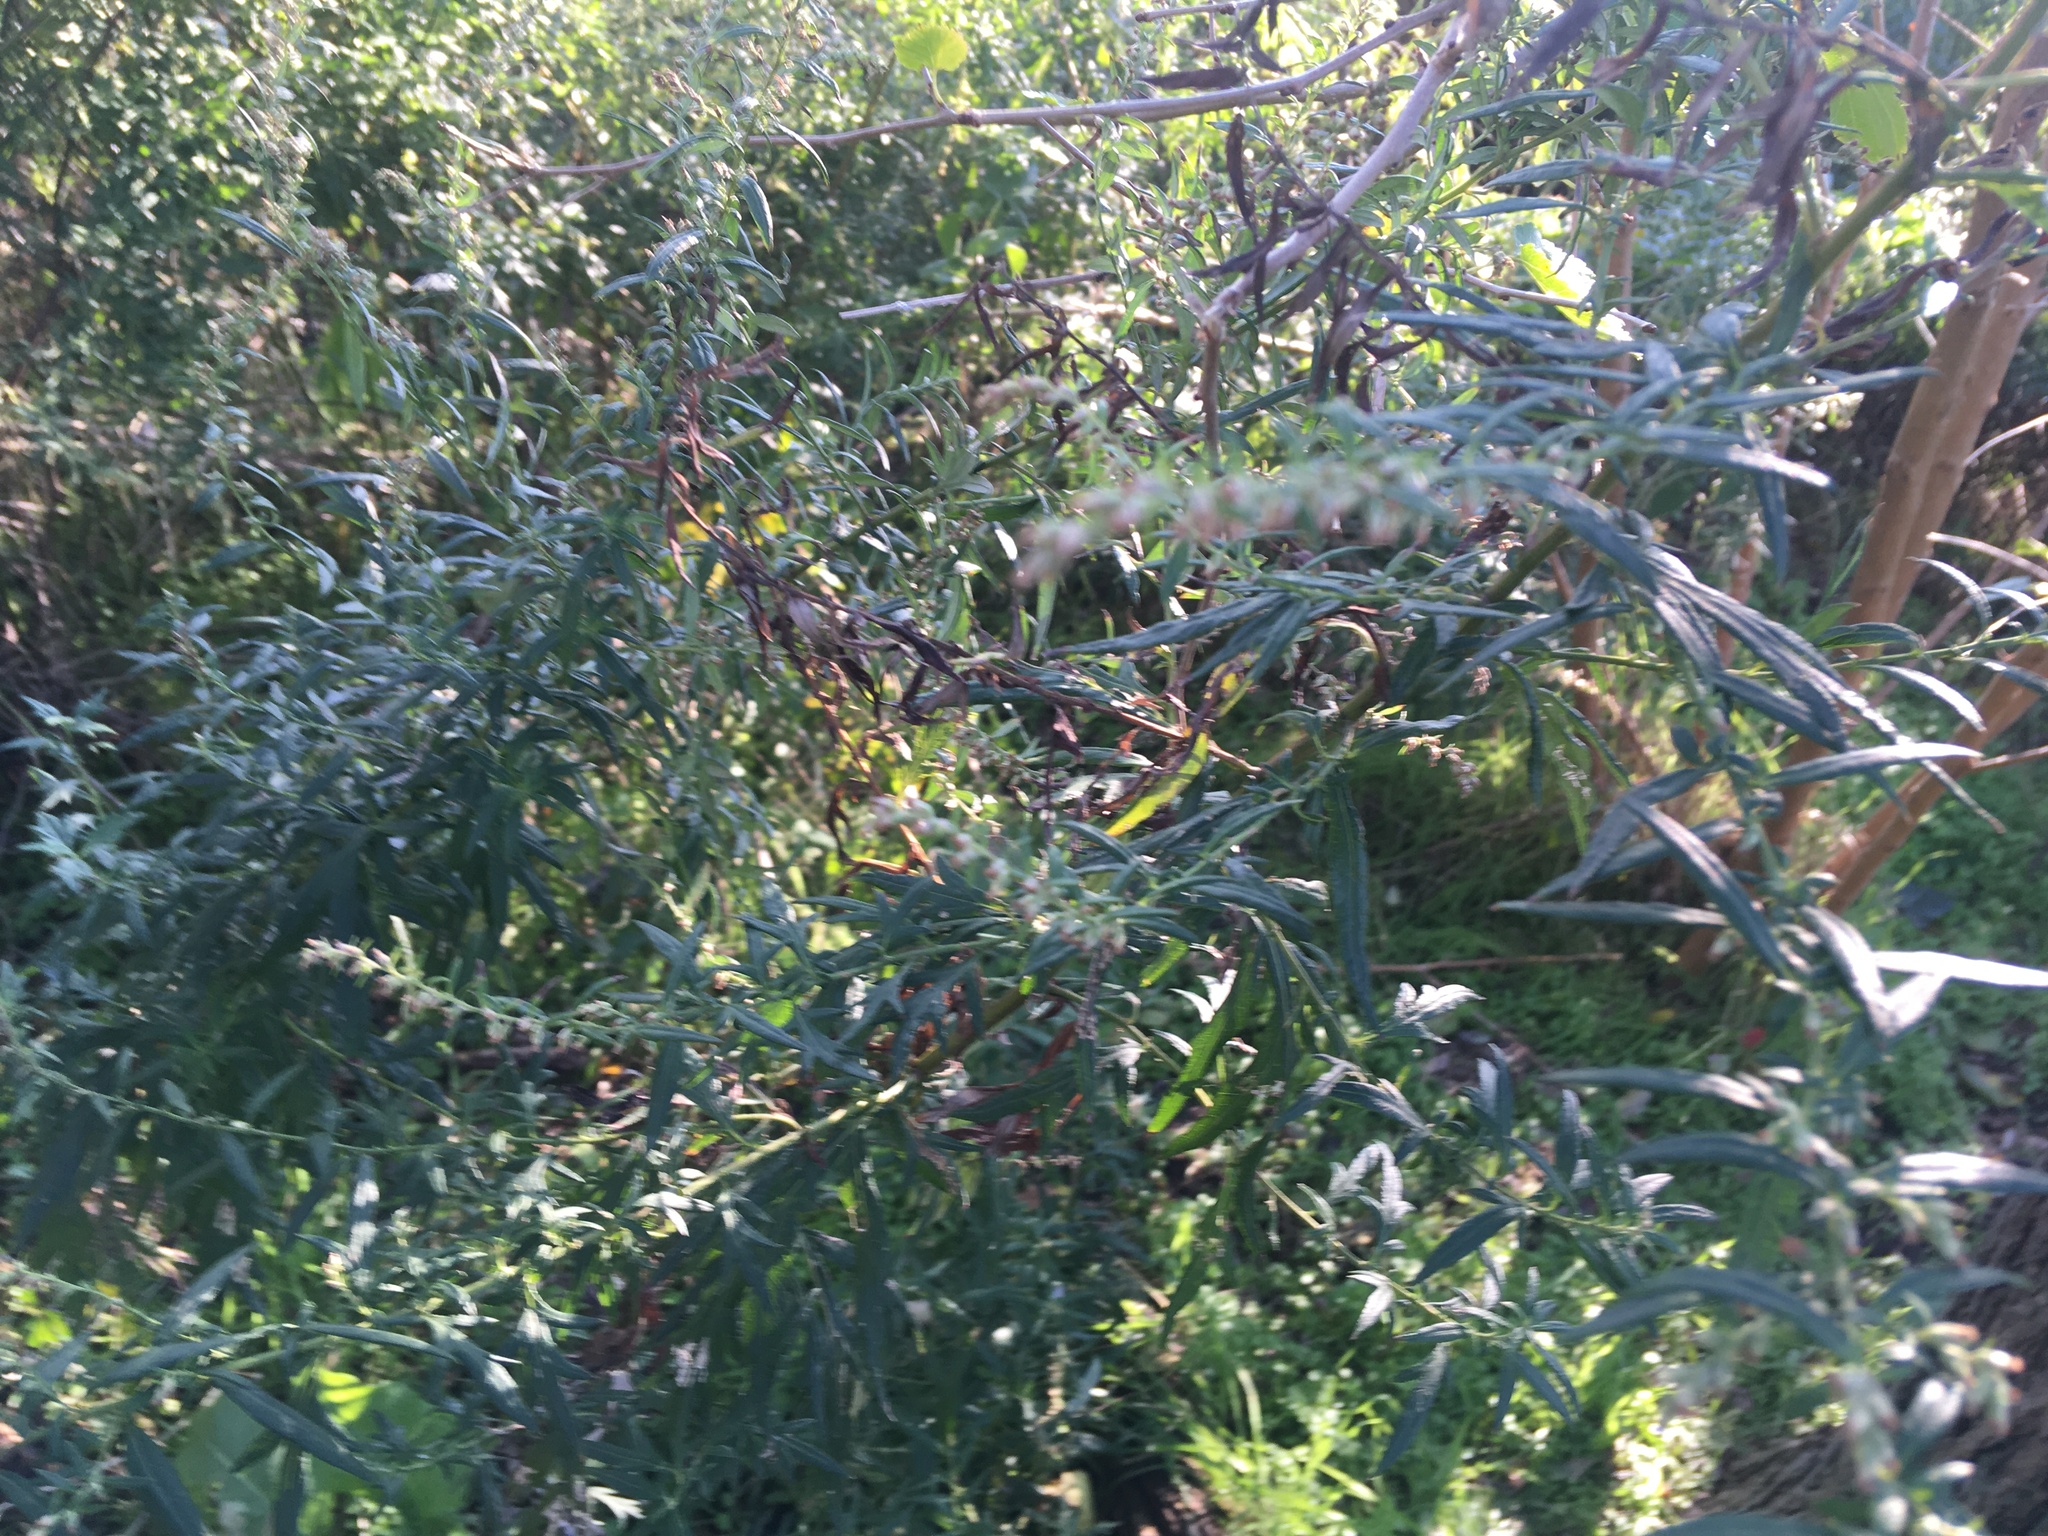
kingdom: Plantae
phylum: Tracheophyta
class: Magnoliopsida
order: Asterales
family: Asteraceae
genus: Artemisia
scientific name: Artemisia vulgaris
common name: Mugwort
